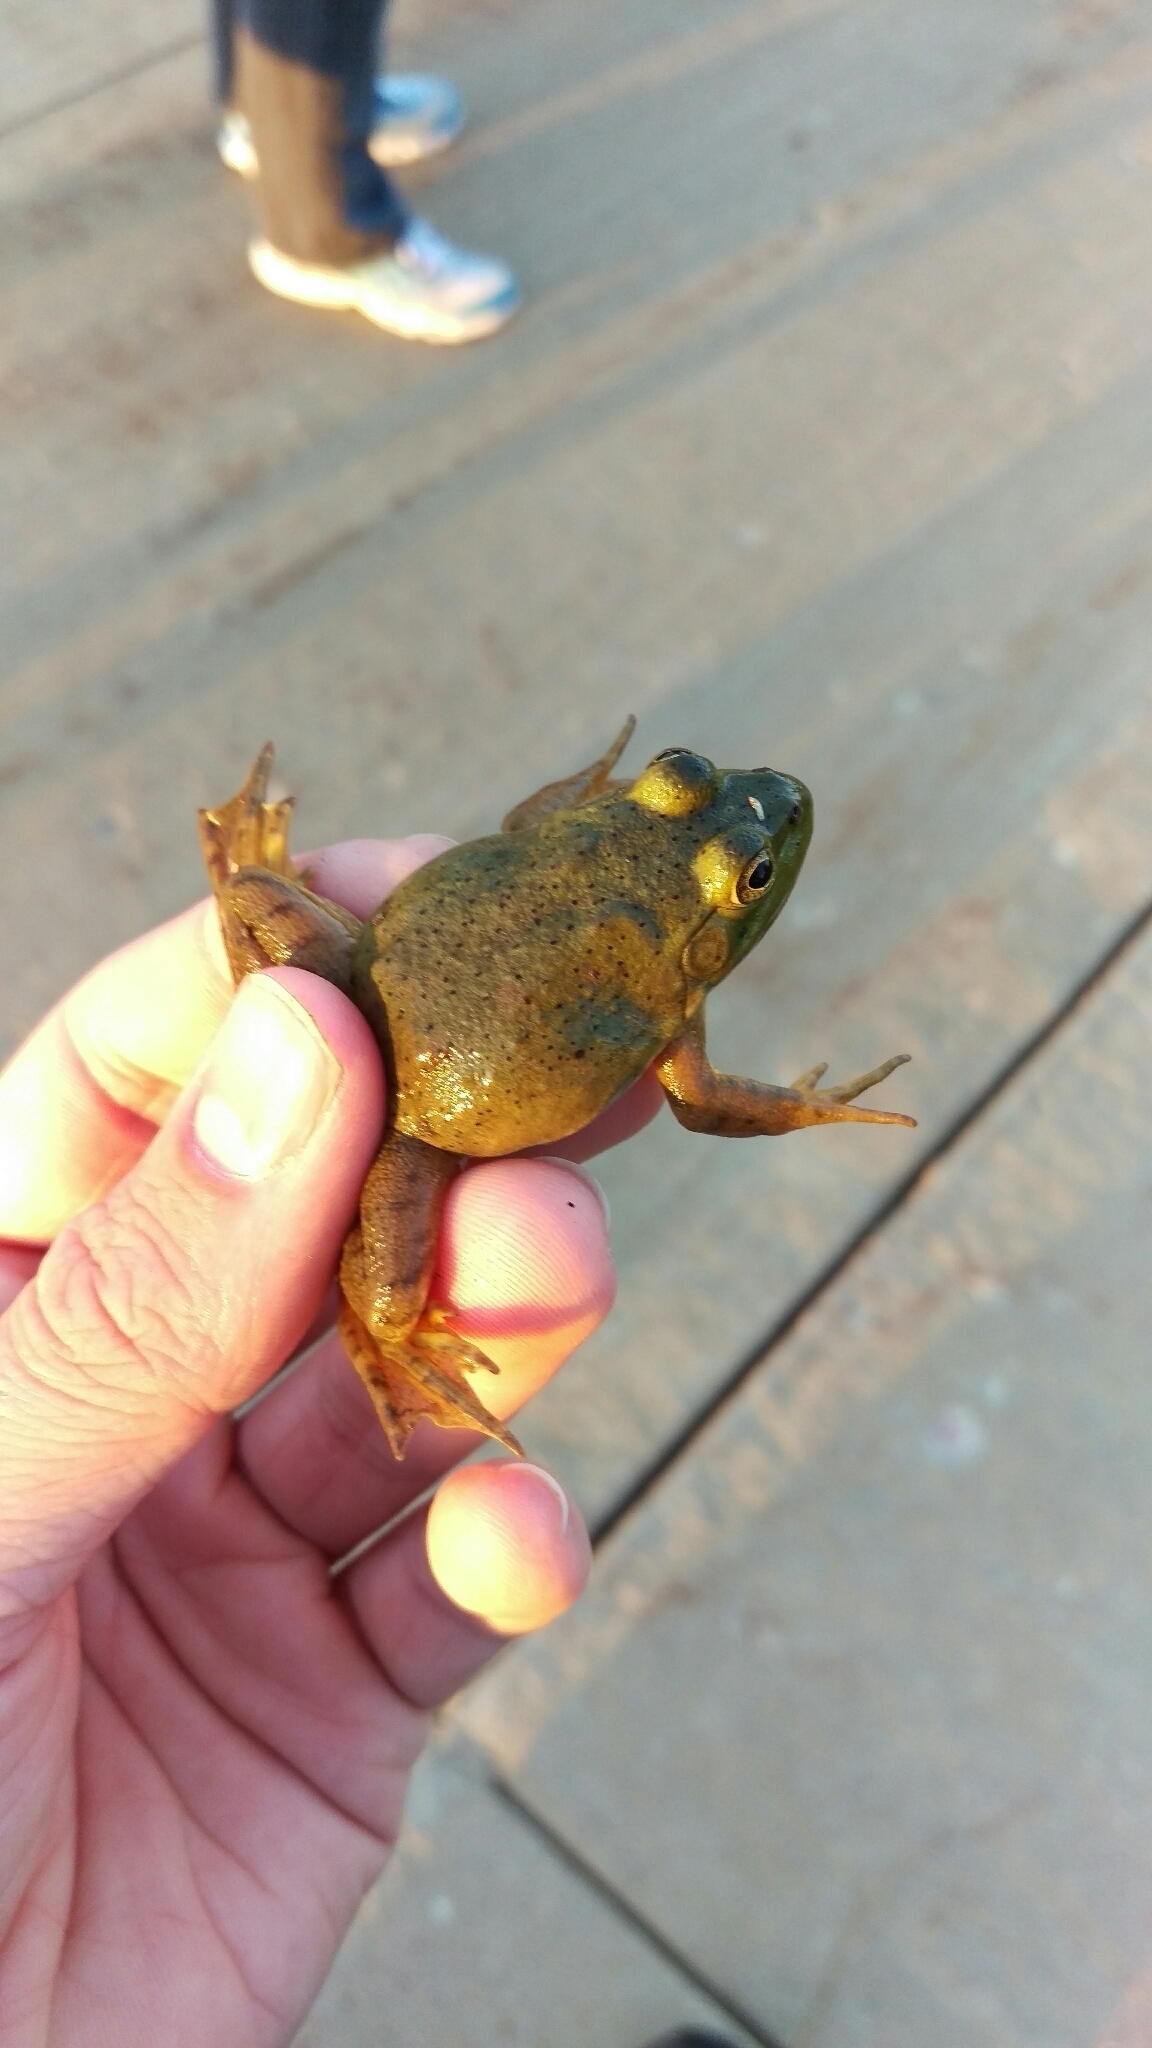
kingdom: Animalia
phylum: Chordata
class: Amphibia
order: Anura
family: Ranidae
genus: Lithobates
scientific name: Lithobates catesbeianus
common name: American bullfrog
